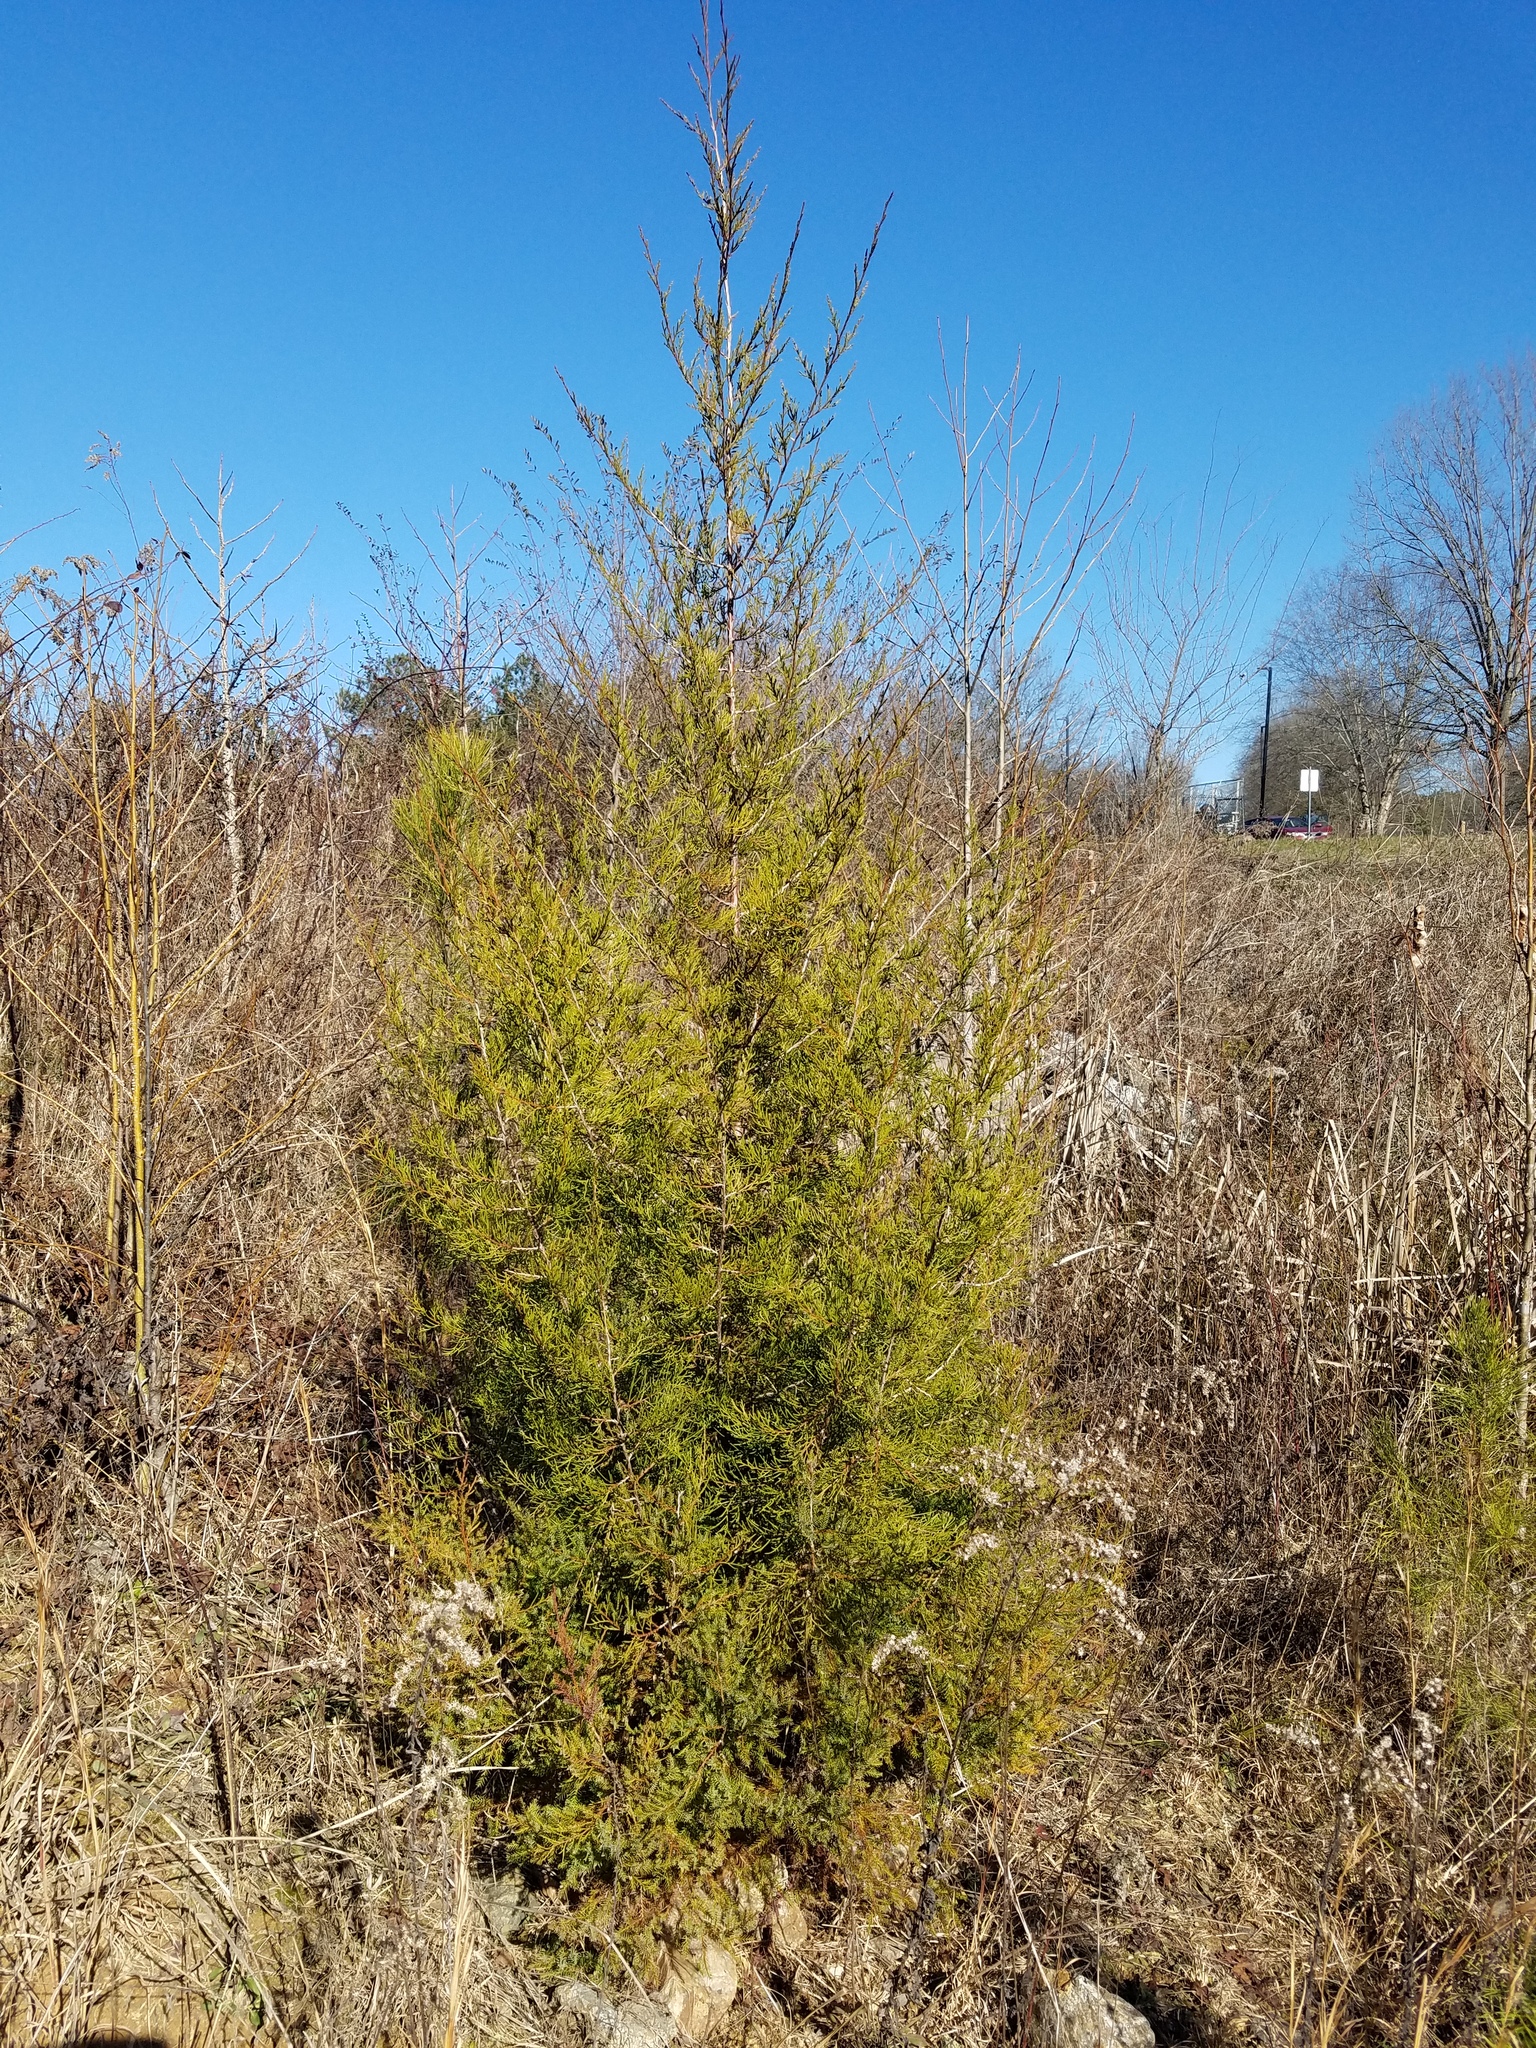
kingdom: Plantae
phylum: Tracheophyta
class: Pinopsida
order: Pinales
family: Cupressaceae
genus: Juniperus
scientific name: Juniperus virginiana
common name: Red juniper
